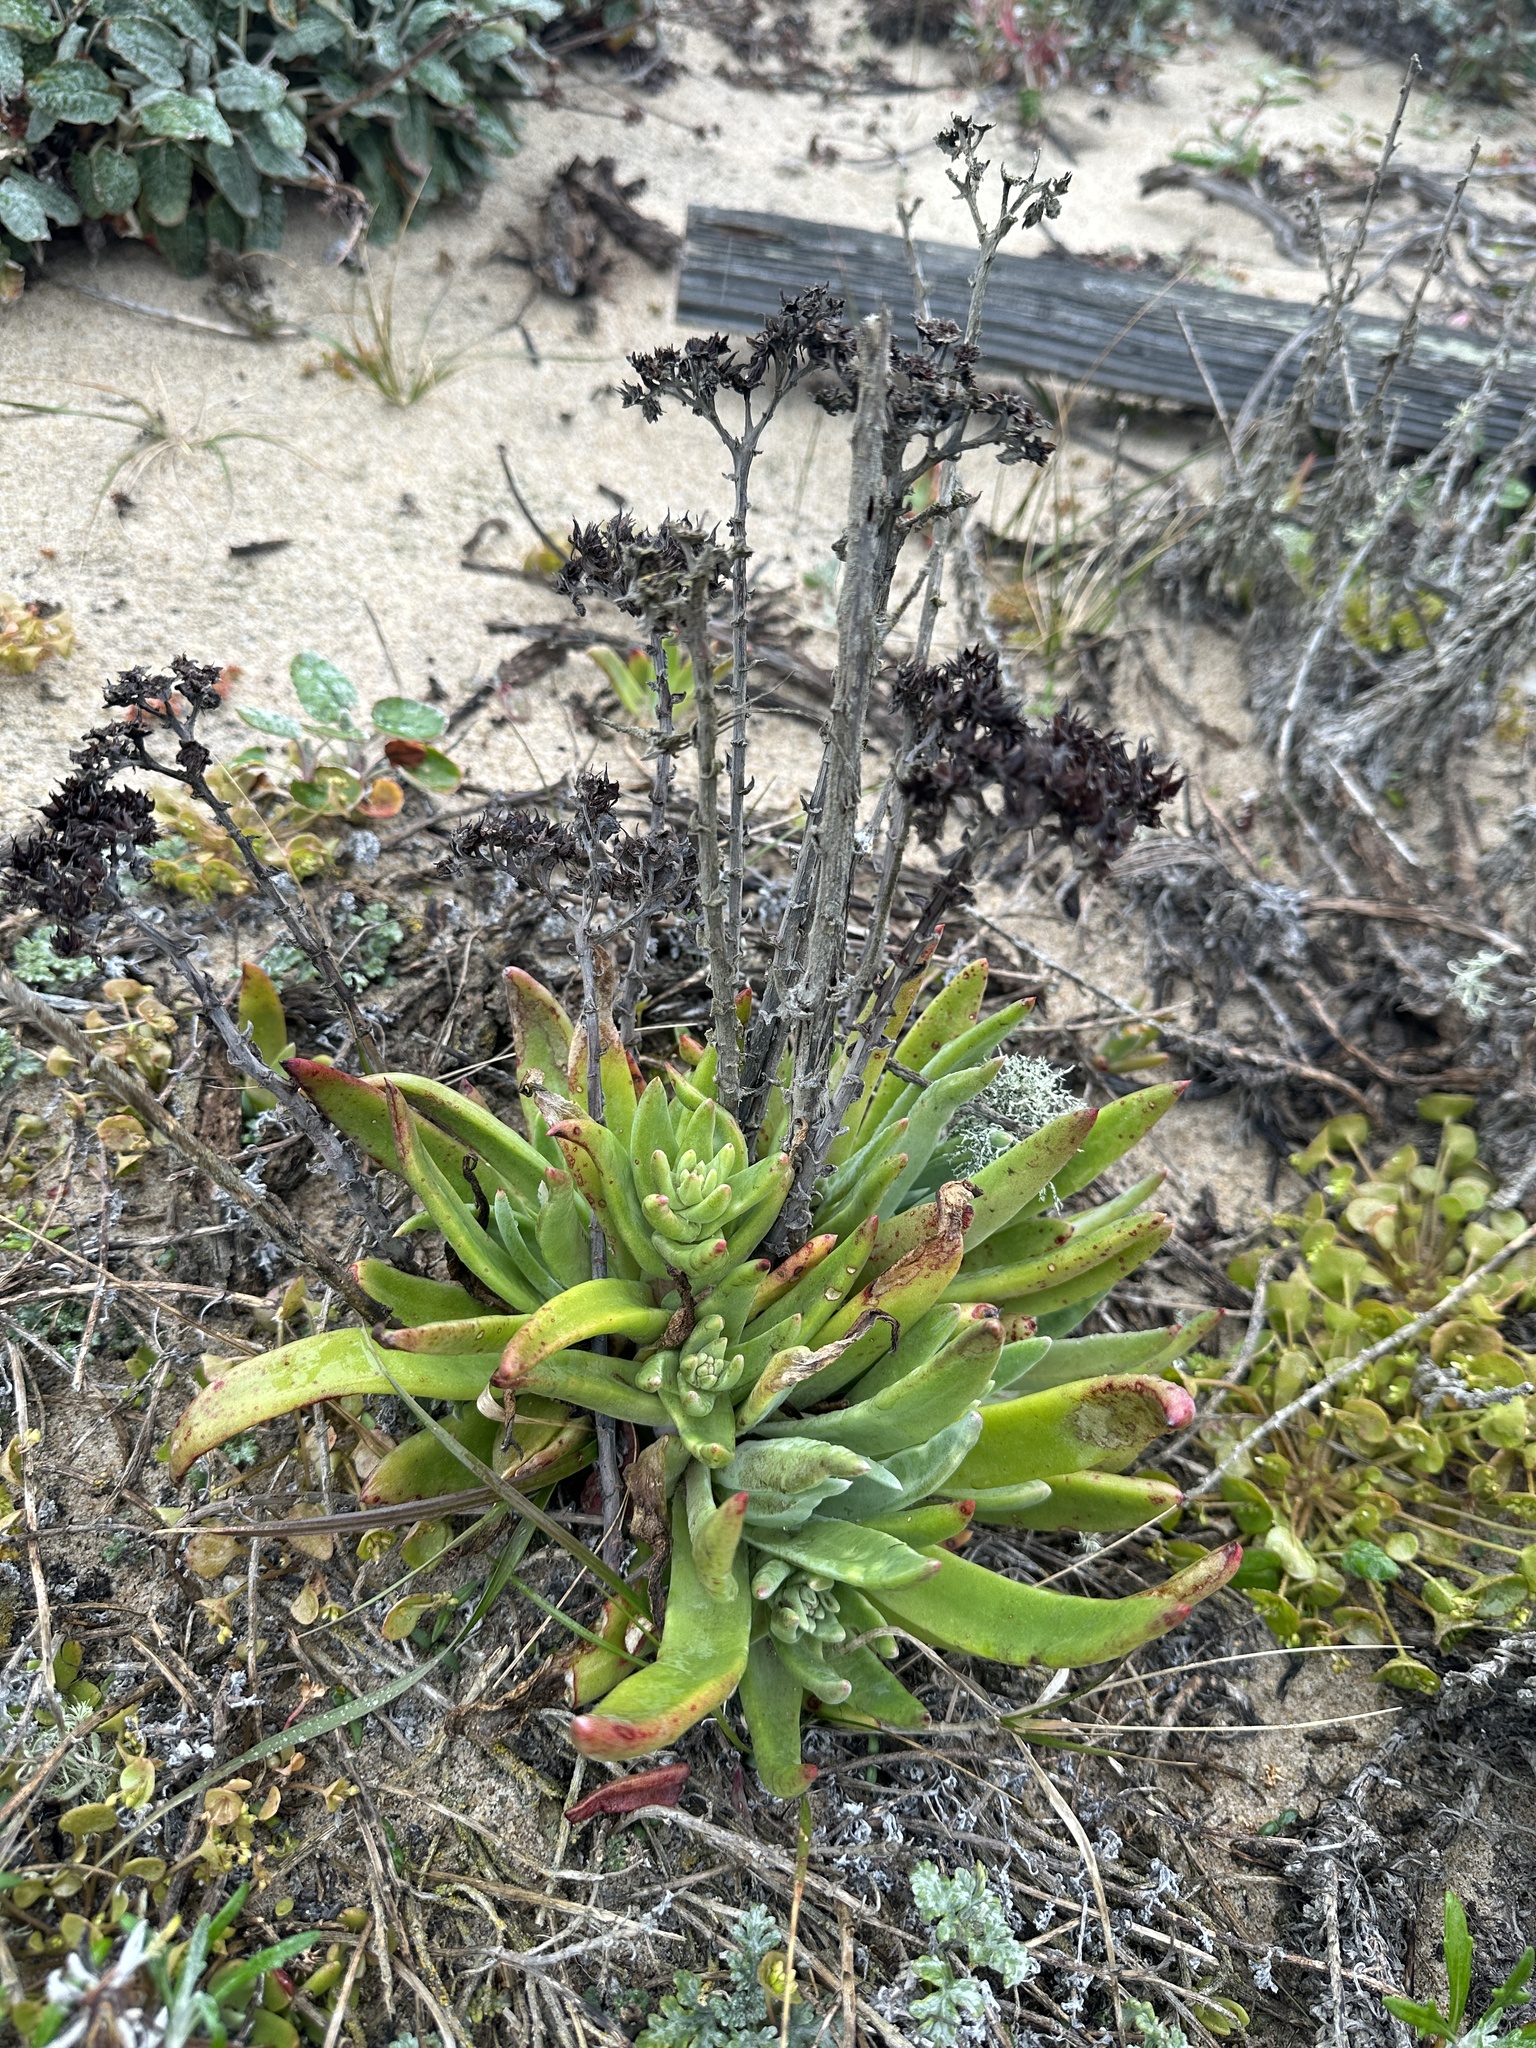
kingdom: Plantae
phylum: Tracheophyta
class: Magnoliopsida
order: Saxifragales
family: Crassulaceae
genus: Dudleya
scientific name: Dudleya caespitosa
